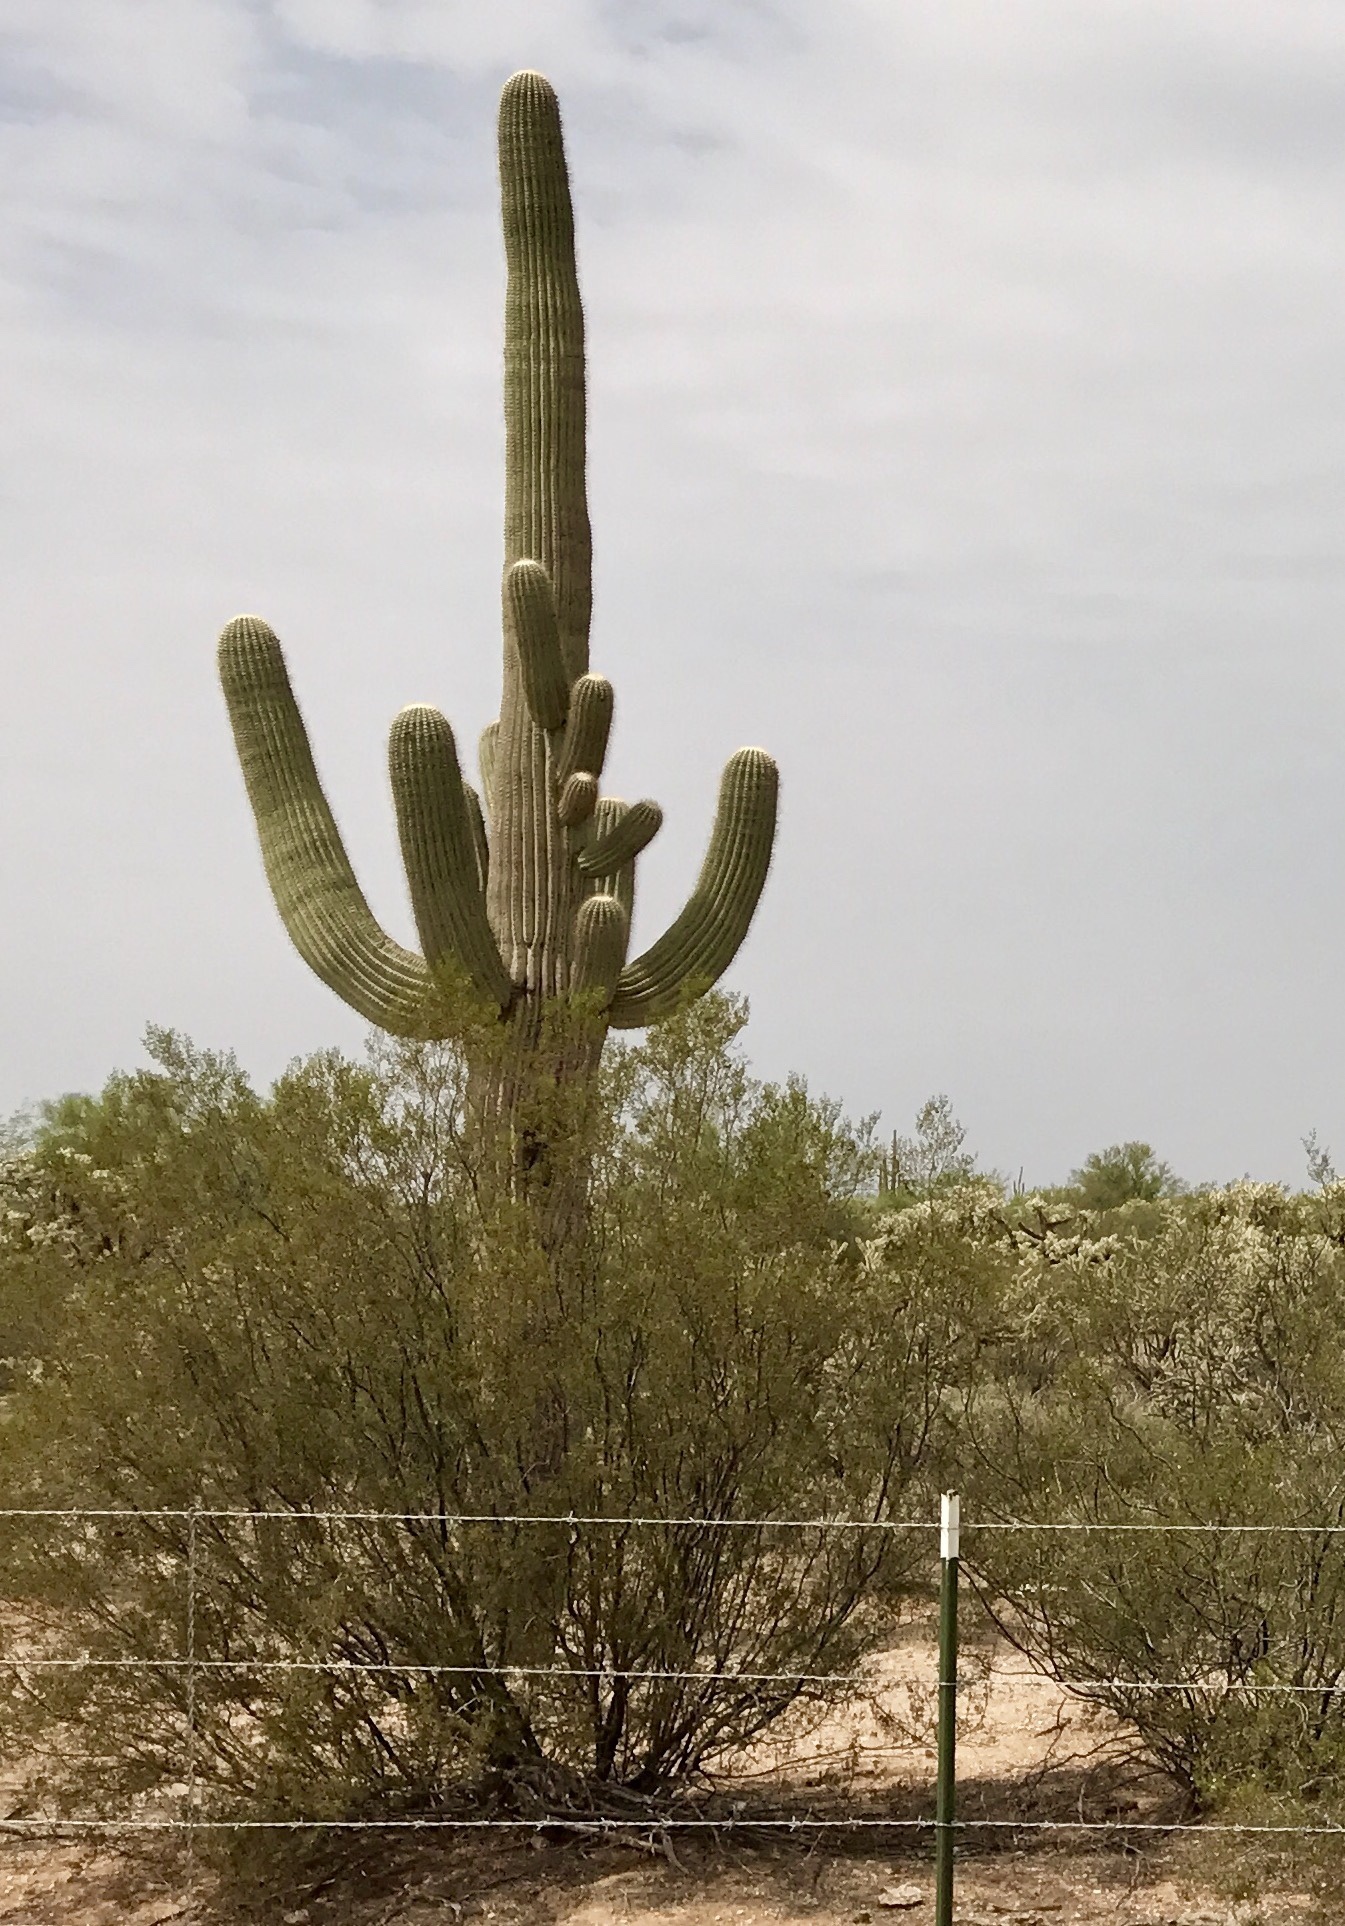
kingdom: Plantae
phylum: Tracheophyta
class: Magnoliopsida
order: Caryophyllales
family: Cactaceae
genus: Carnegiea
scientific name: Carnegiea gigantea
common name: Saguaro
